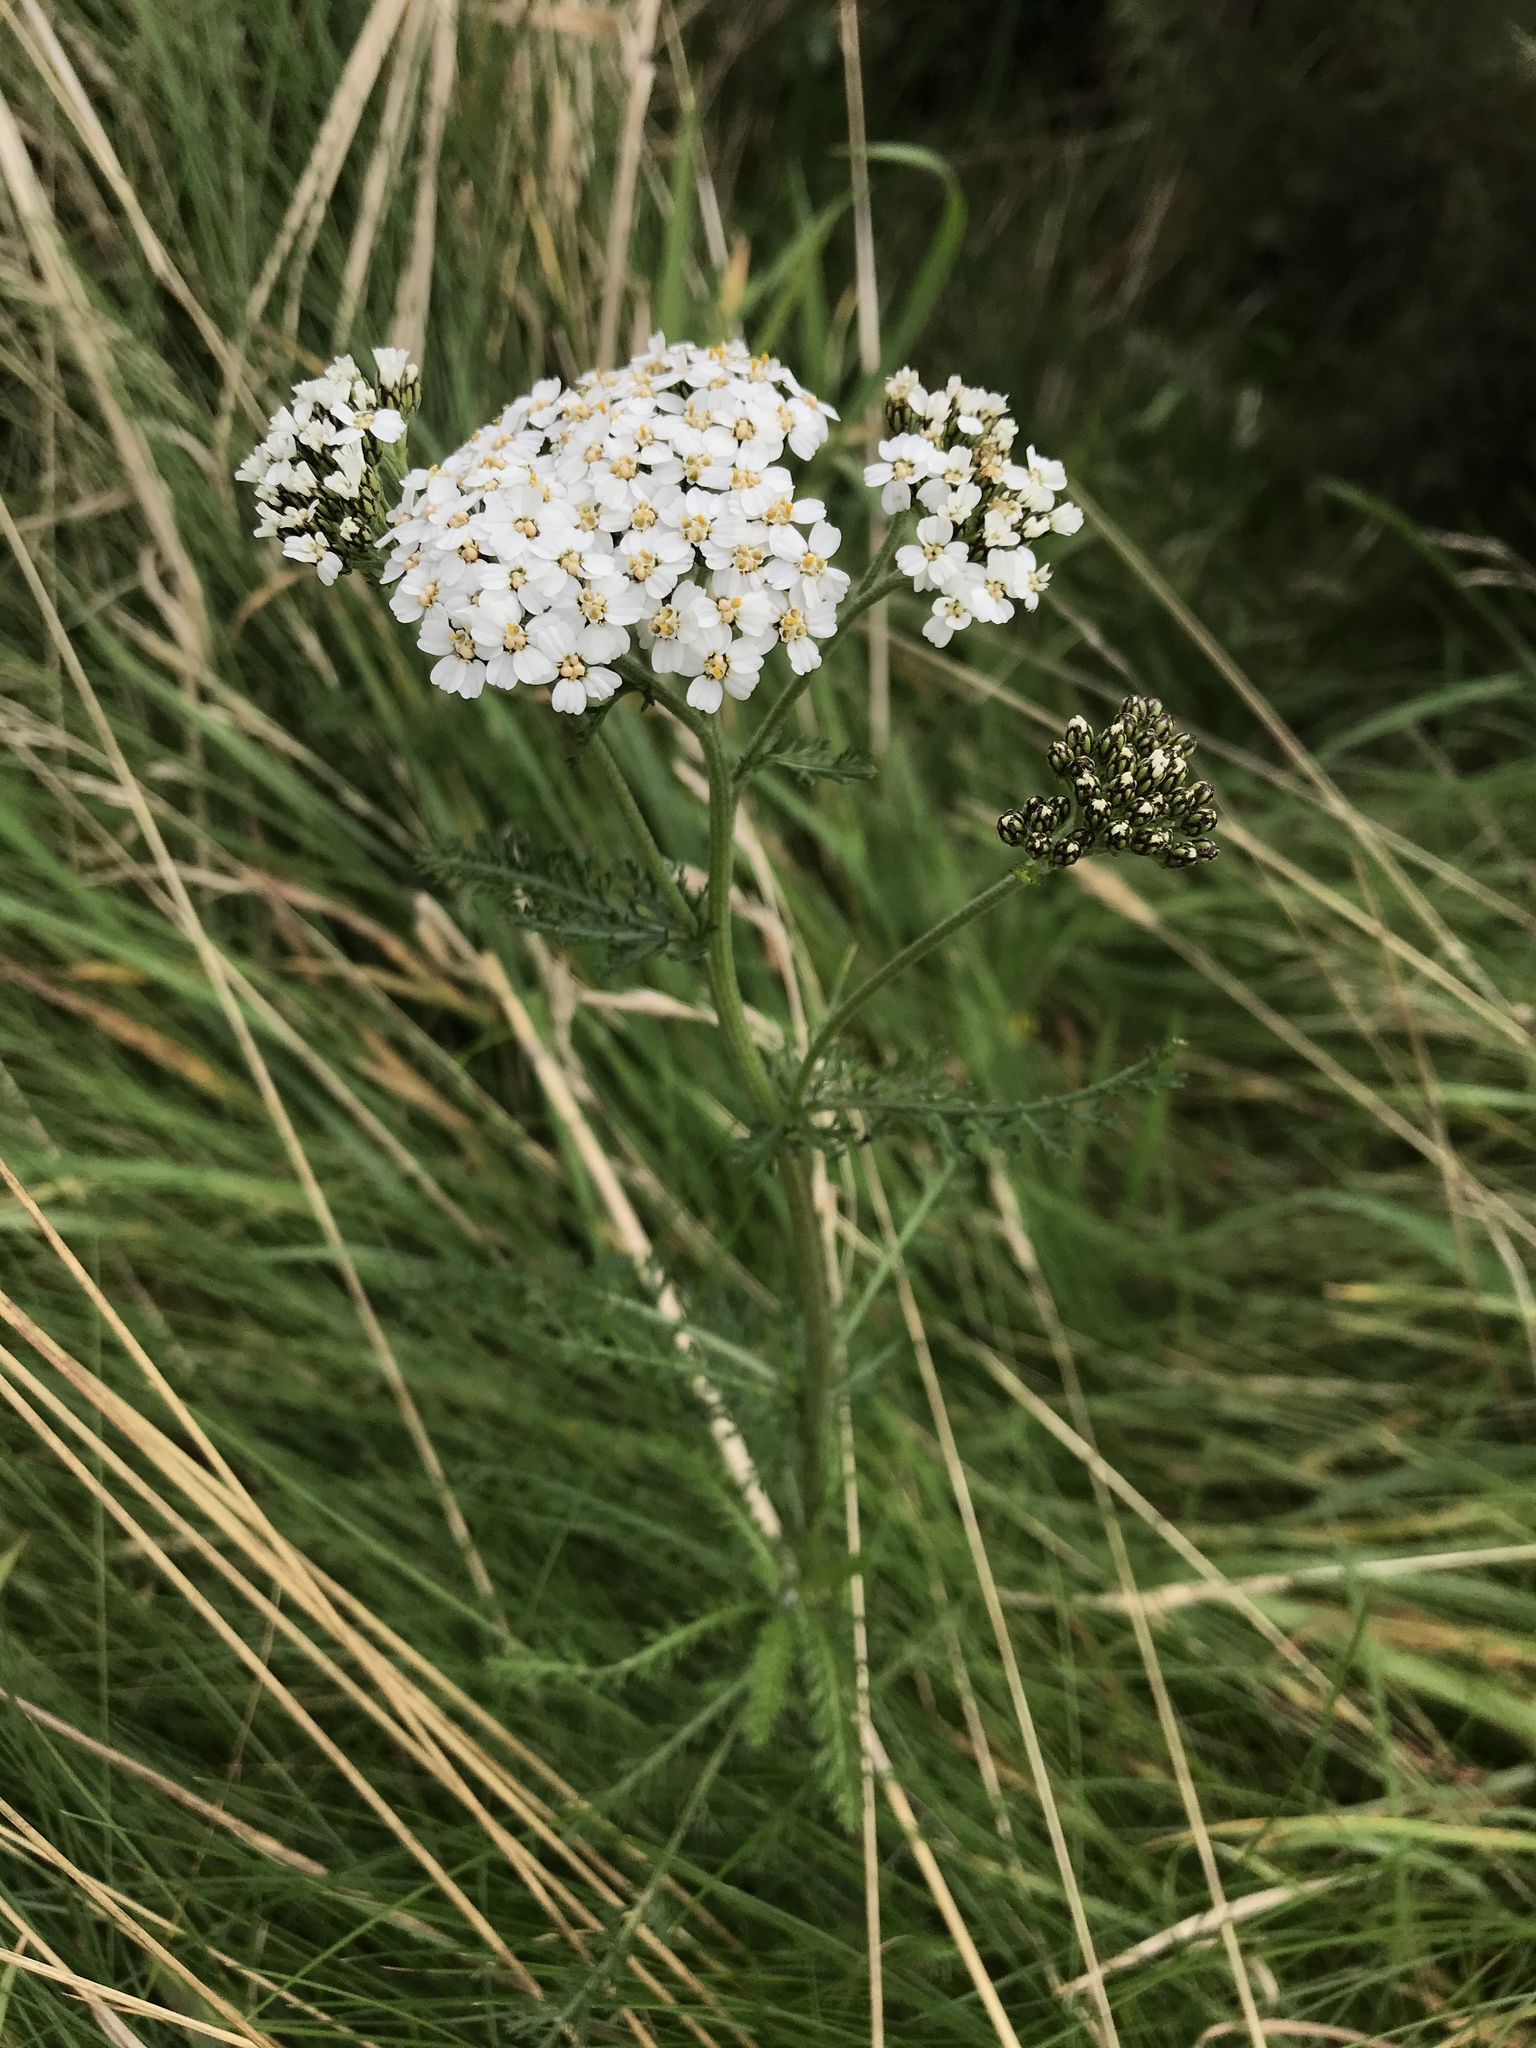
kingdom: Plantae
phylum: Tracheophyta
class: Magnoliopsida
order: Asterales
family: Asteraceae
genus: Achillea
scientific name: Achillea millefolium
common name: Yarrow
